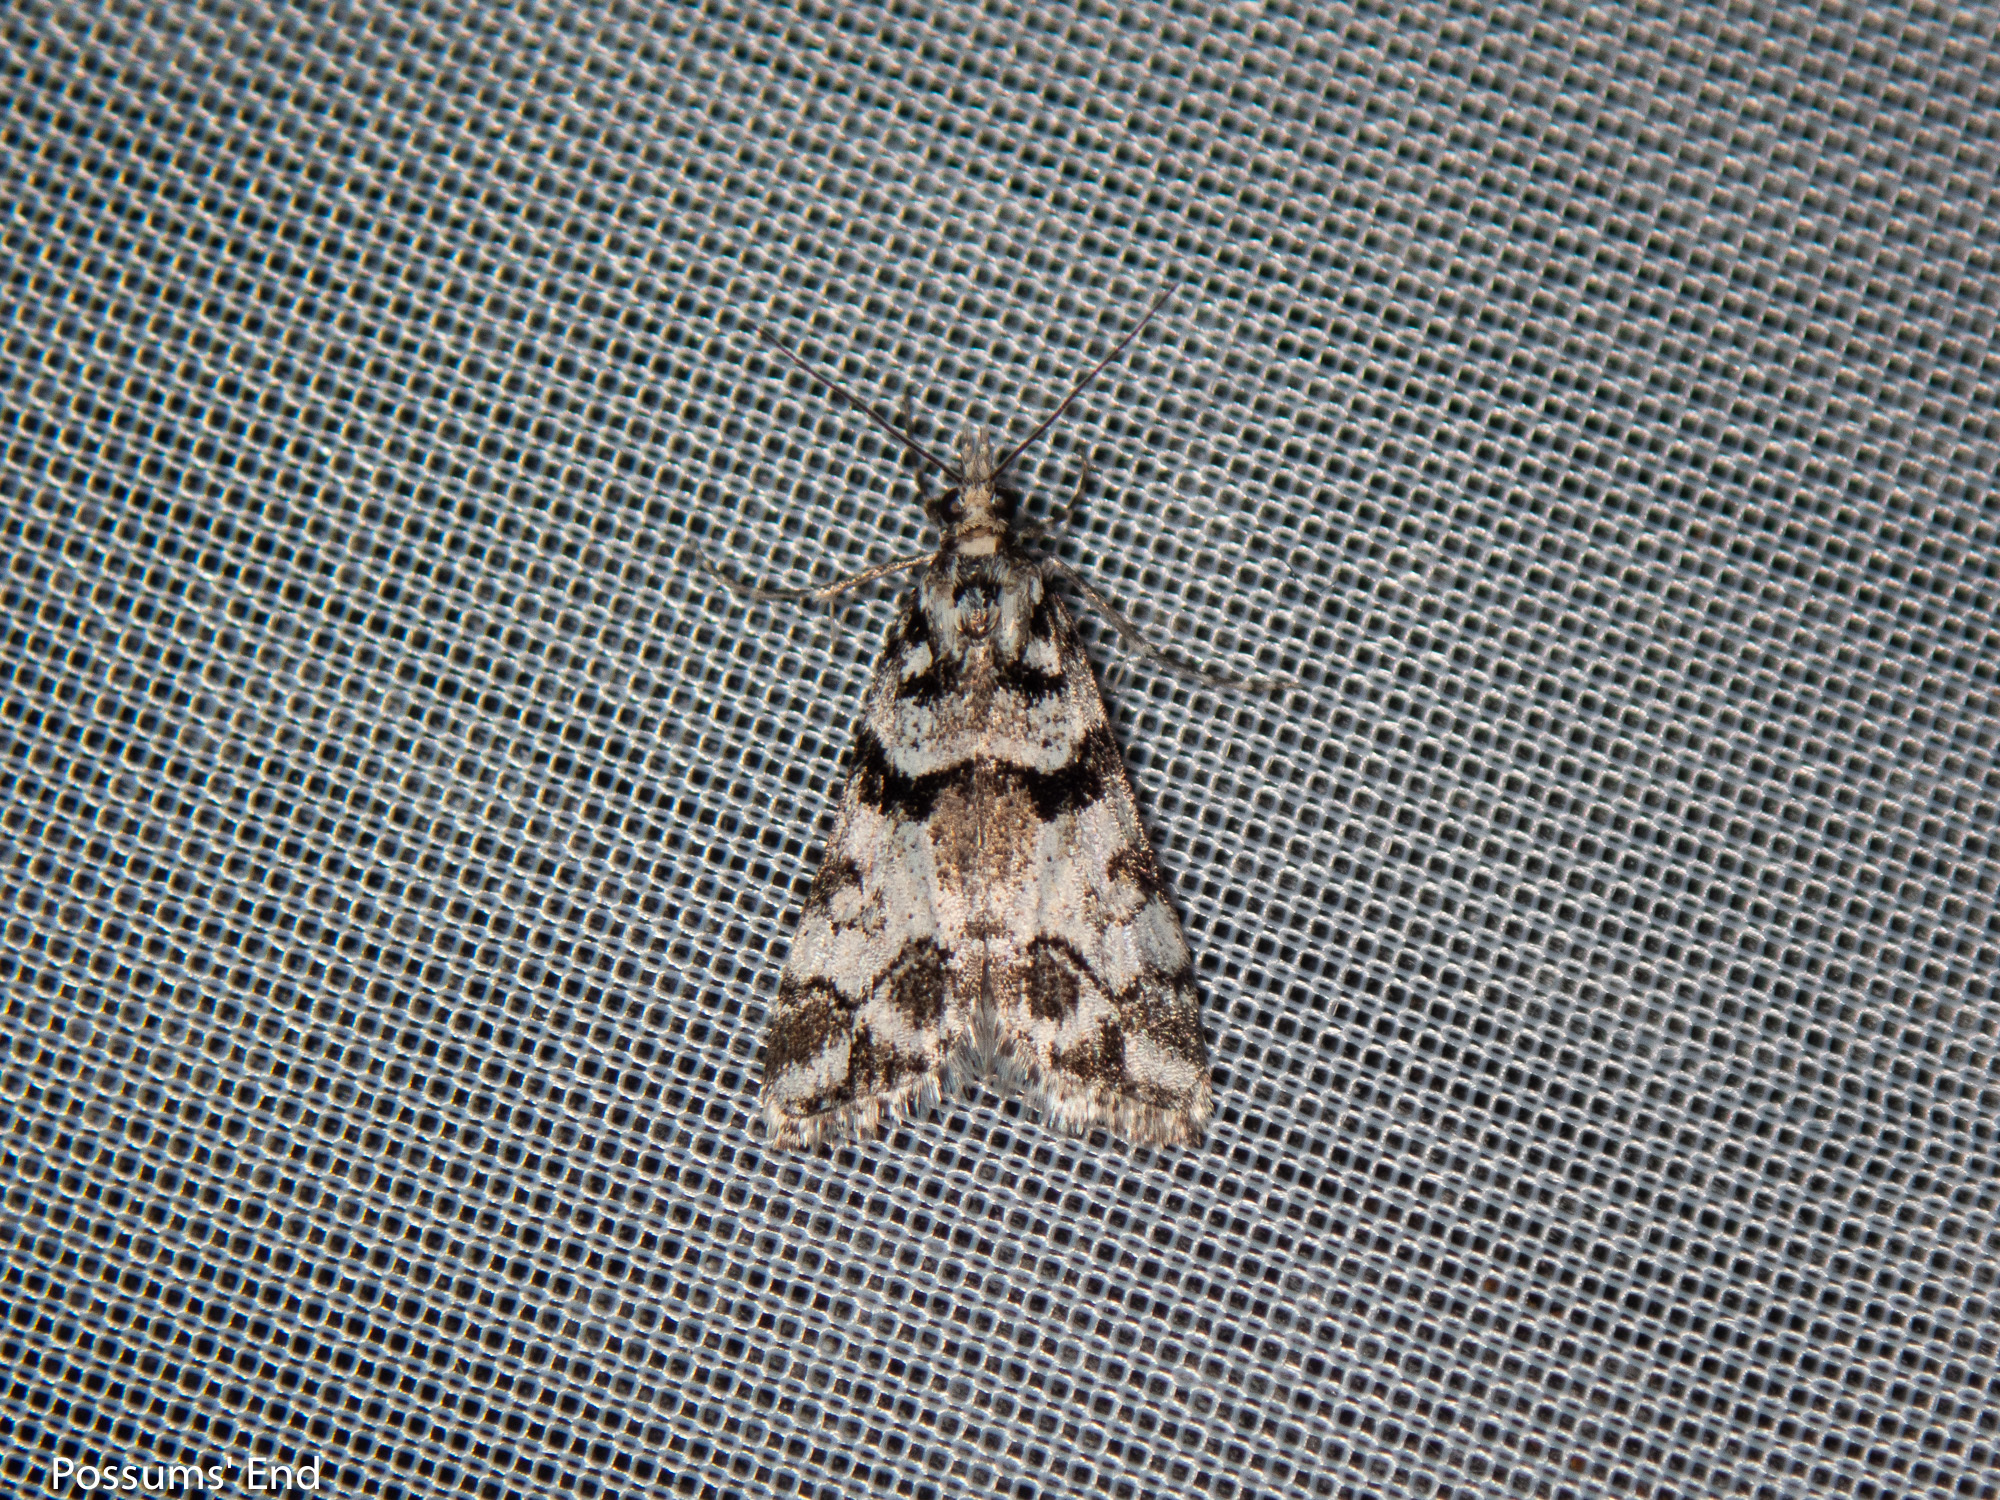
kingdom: Animalia
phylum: Arthropoda
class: Insecta
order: Lepidoptera
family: Crambidae
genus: Eudonia
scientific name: Eudonia torodes
